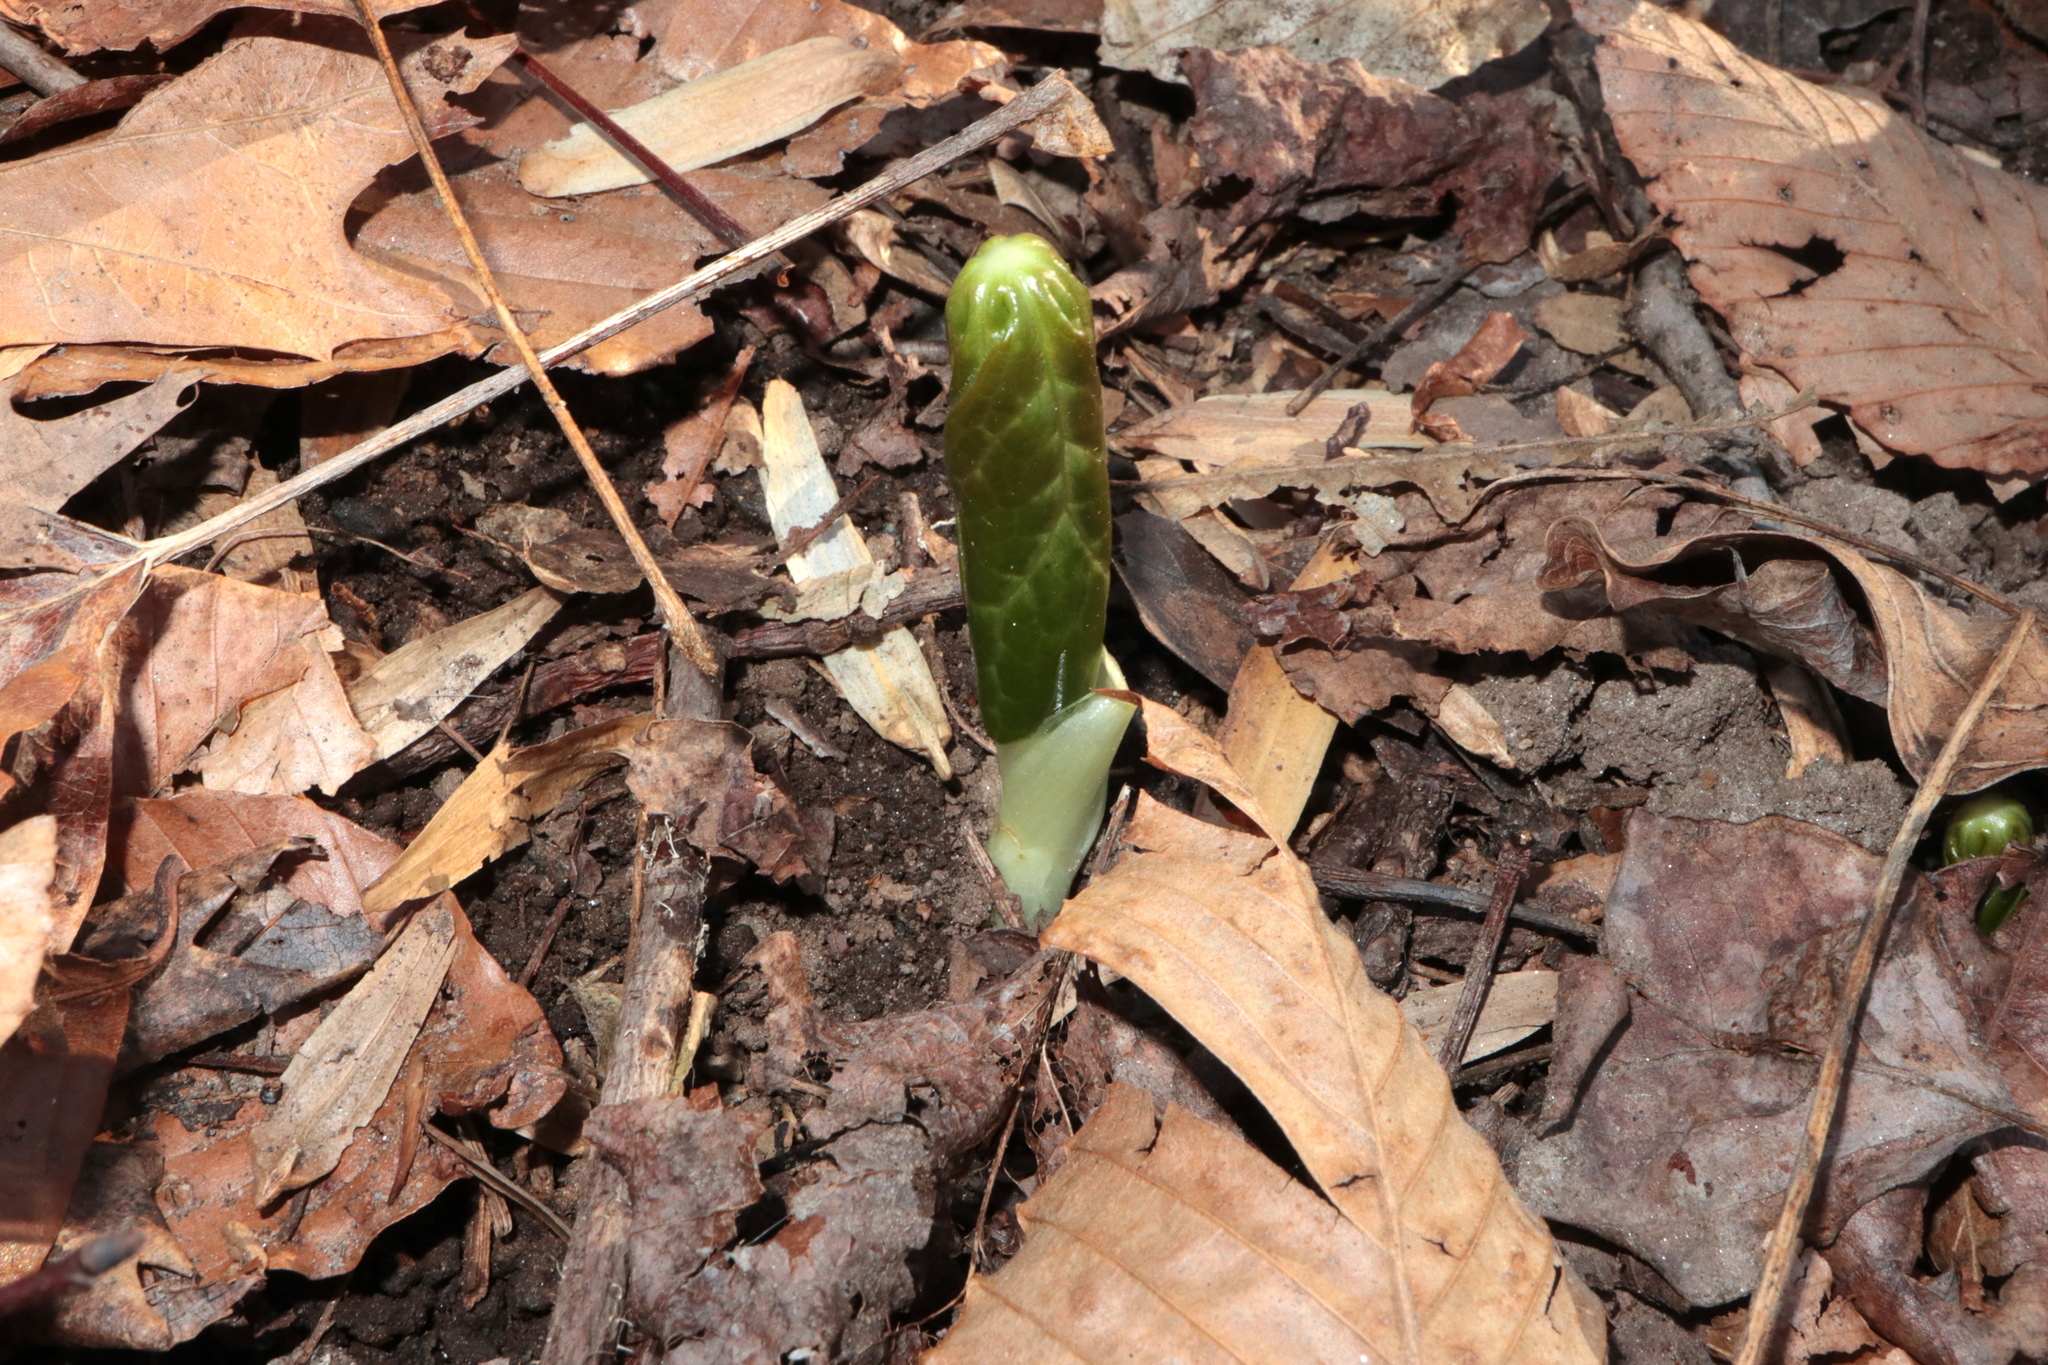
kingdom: Plantae
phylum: Tracheophyta
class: Magnoliopsida
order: Ranunculales
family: Berberidaceae
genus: Podophyllum
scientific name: Podophyllum peltatum
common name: Wild mandrake
